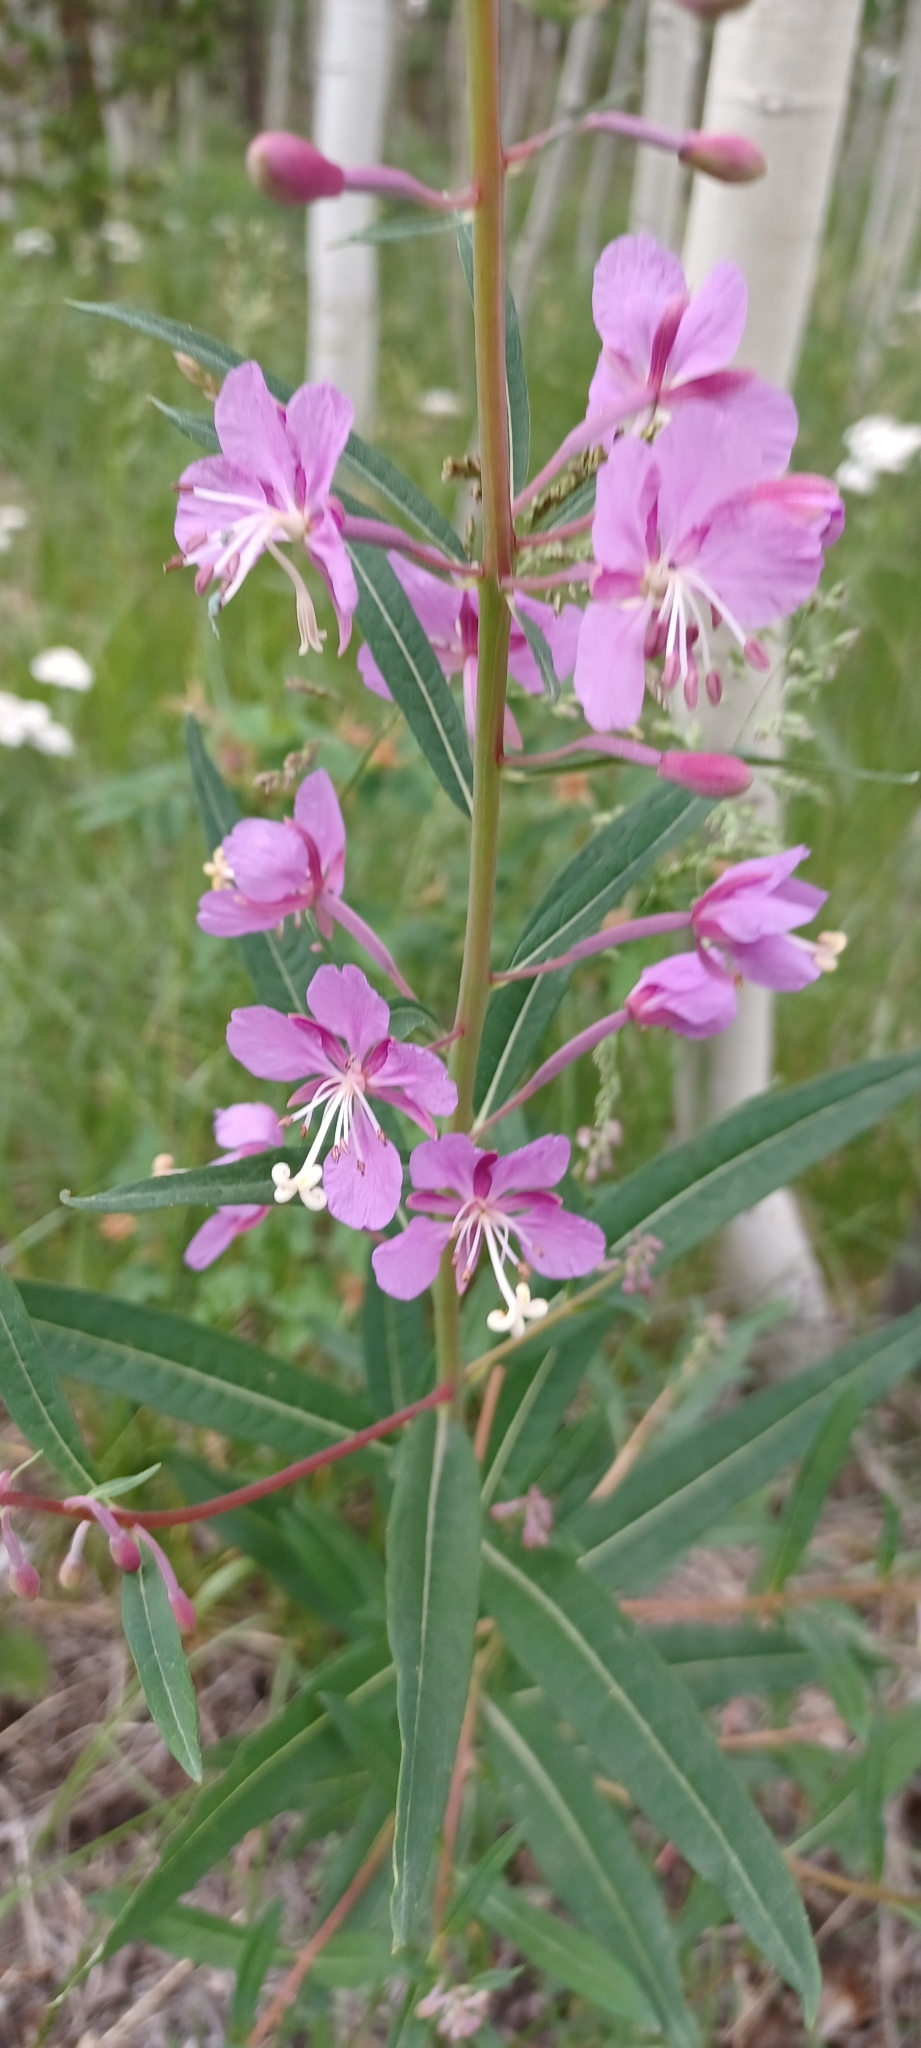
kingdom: Plantae
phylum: Tracheophyta
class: Magnoliopsida
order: Myrtales
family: Onagraceae
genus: Chamaenerion
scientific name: Chamaenerion angustifolium
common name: Fireweed
